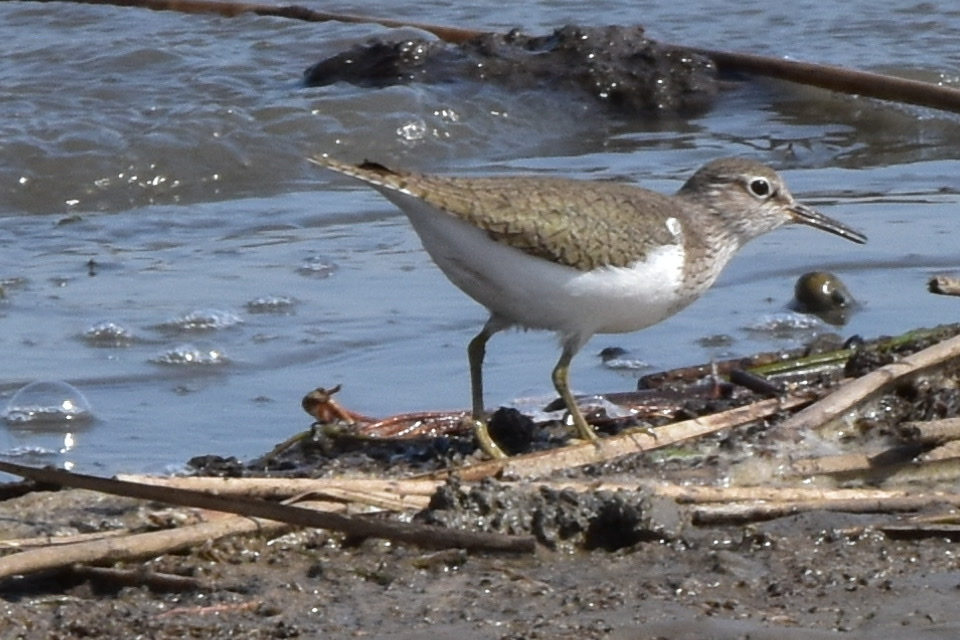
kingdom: Animalia
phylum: Chordata
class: Aves
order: Charadriiformes
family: Scolopacidae
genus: Actitis
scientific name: Actitis hypoleucos
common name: Common sandpiper
